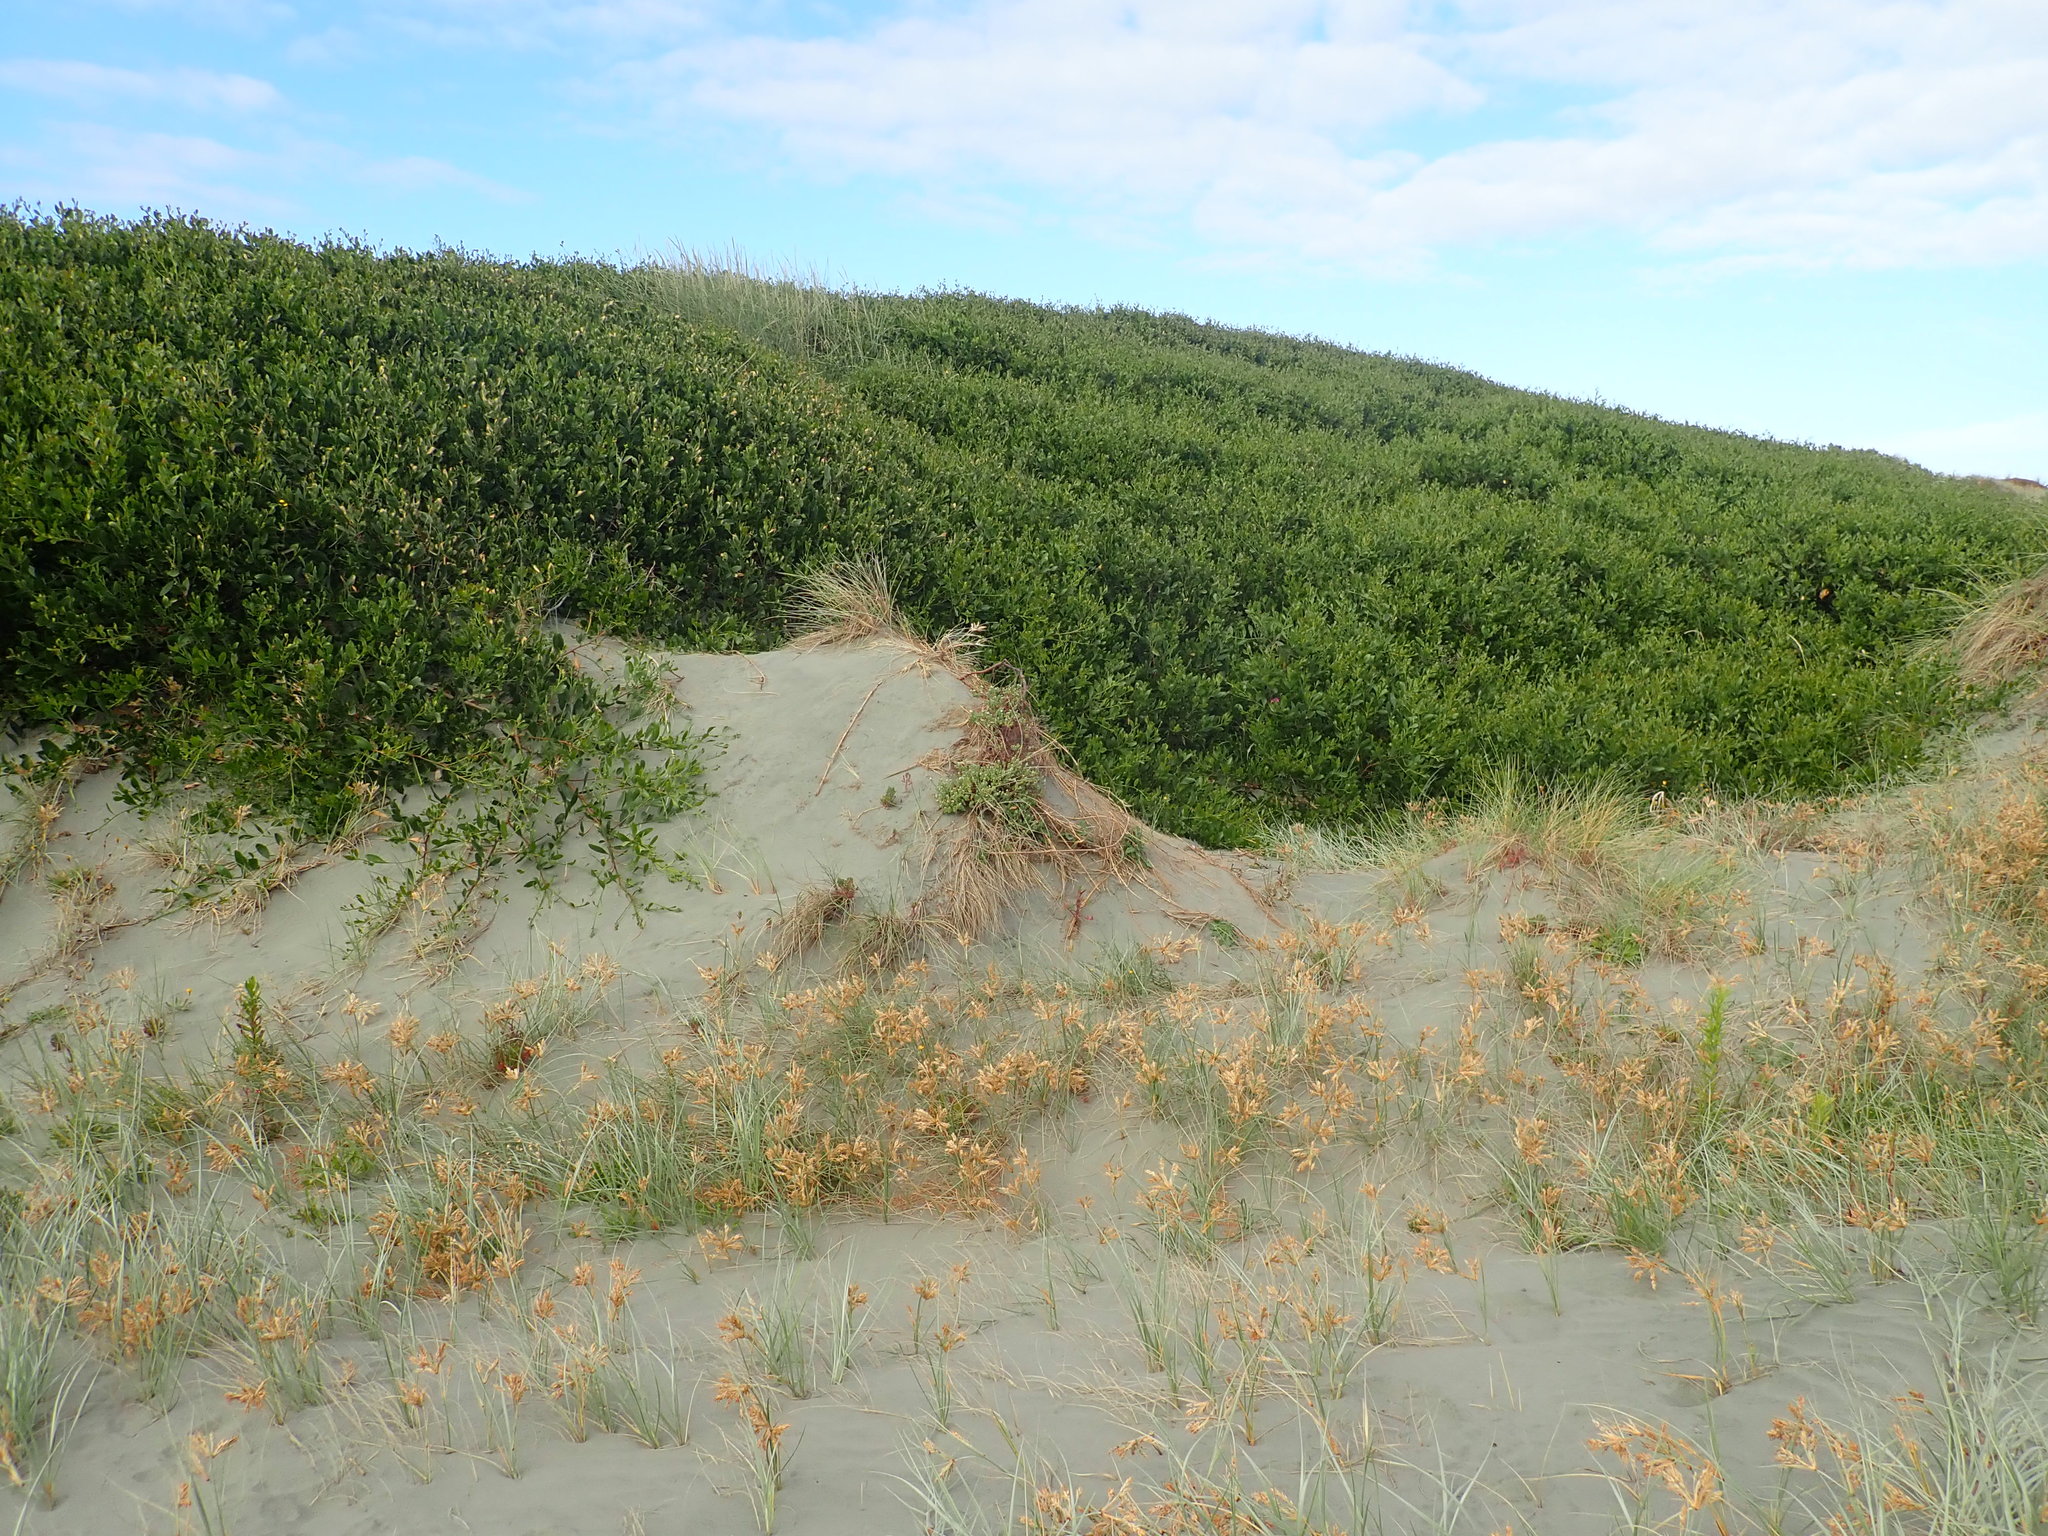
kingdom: Plantae
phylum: Tracheophyta
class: Magnoliopsida
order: Fabales
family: Fabaceae
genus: Acacia
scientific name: Acacia longifolia
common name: Sydney golden wattle
